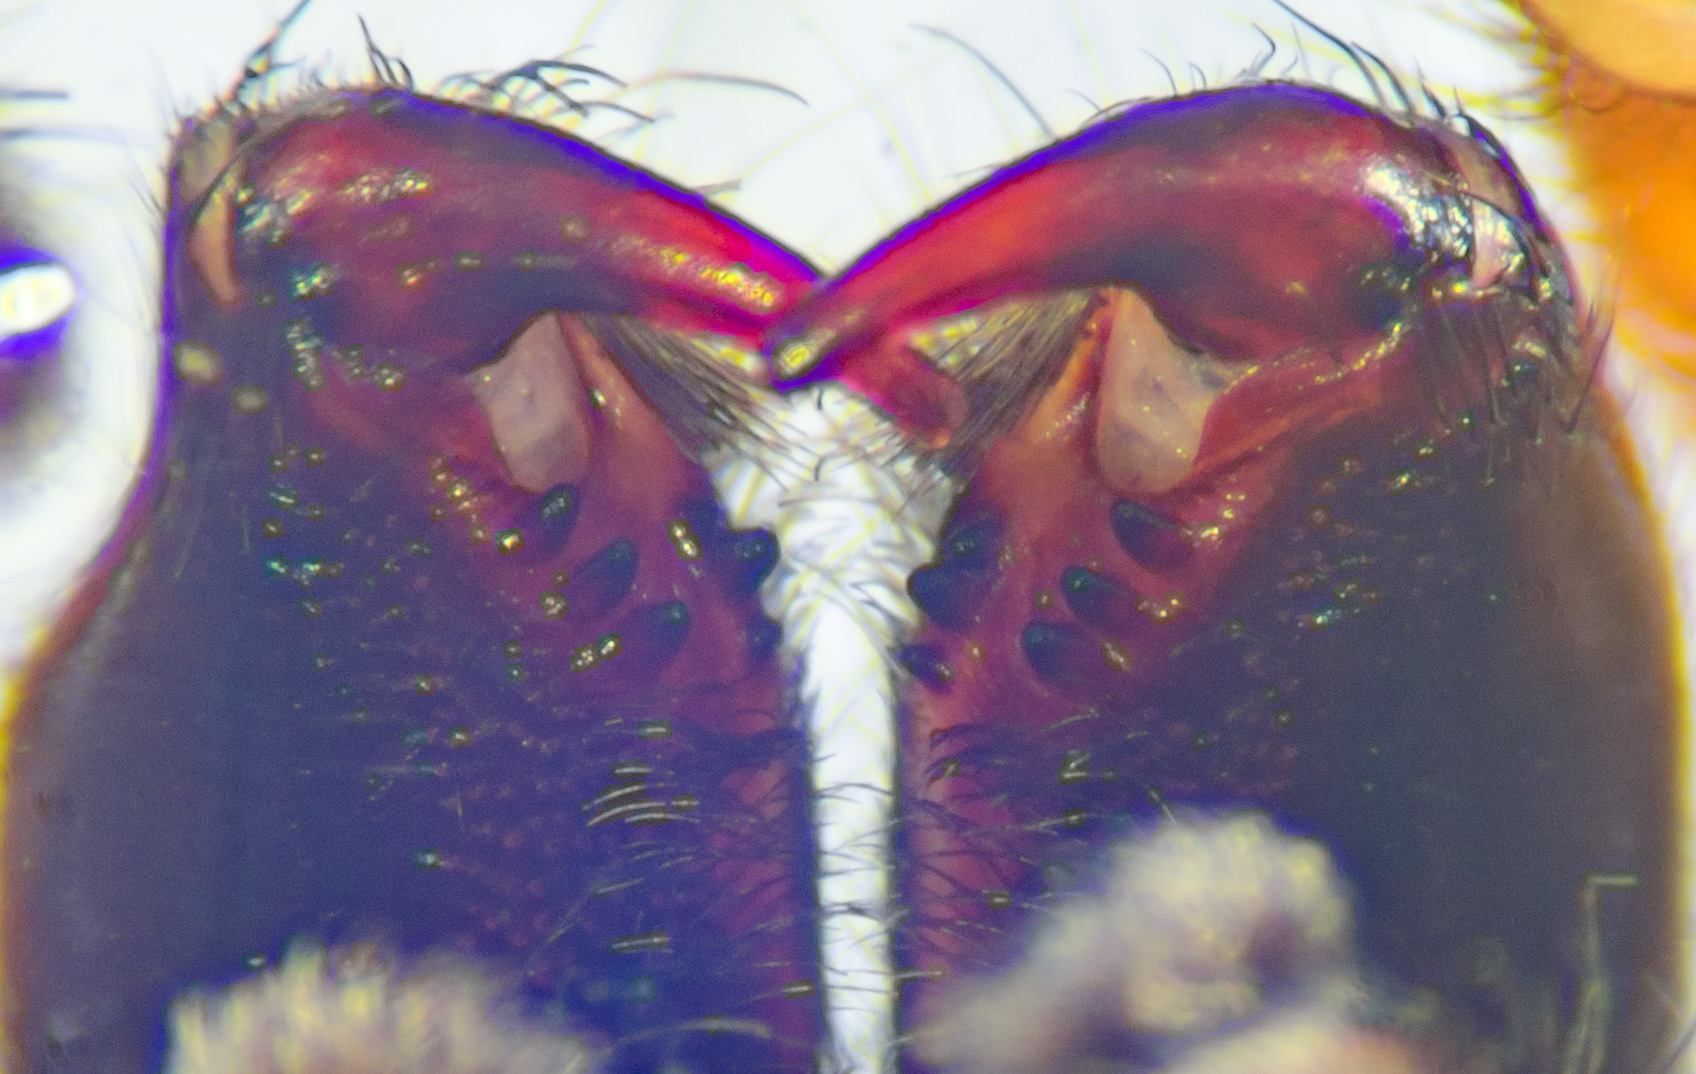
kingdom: Animalia
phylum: Arthropoda
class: Arachnida
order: Araneae
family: Lycosidae
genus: Trochosa
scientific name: Trochosa sepulchralis
